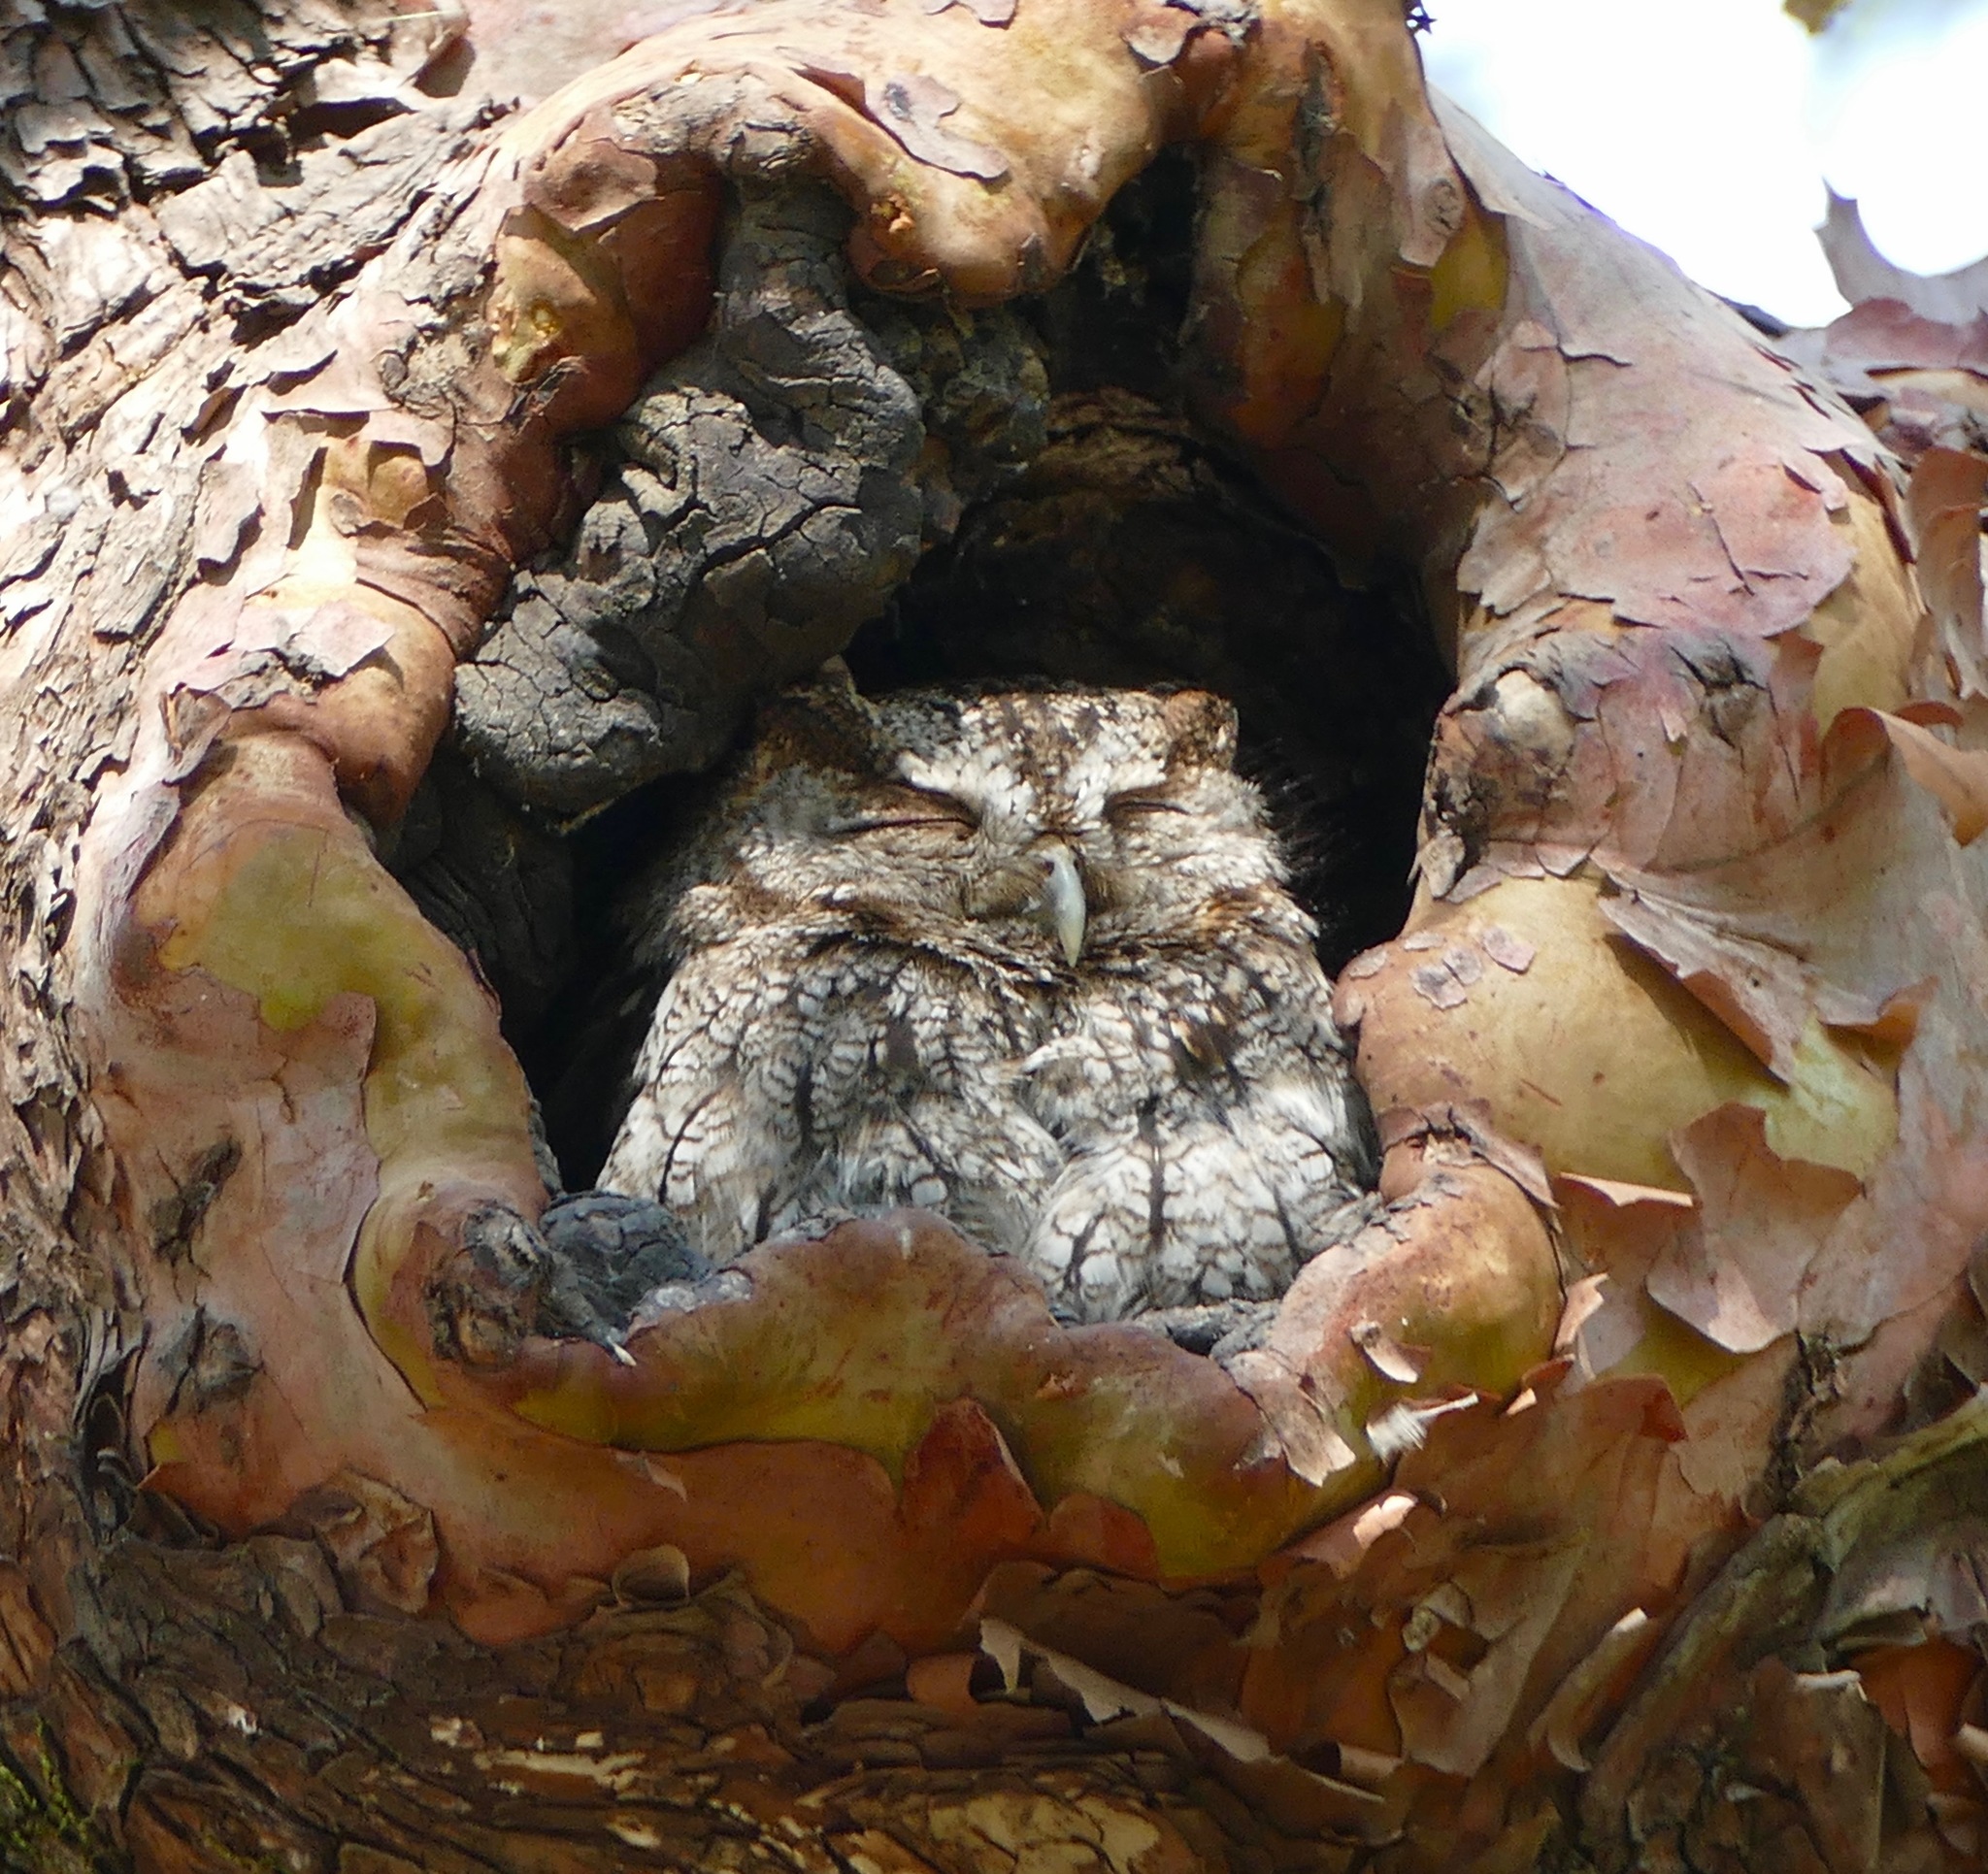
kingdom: Animalia
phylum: Chordata
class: Aves
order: Strigiformes
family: Strigidae
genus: Megascops
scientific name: Megascops kennicottii
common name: Western screech-owl
